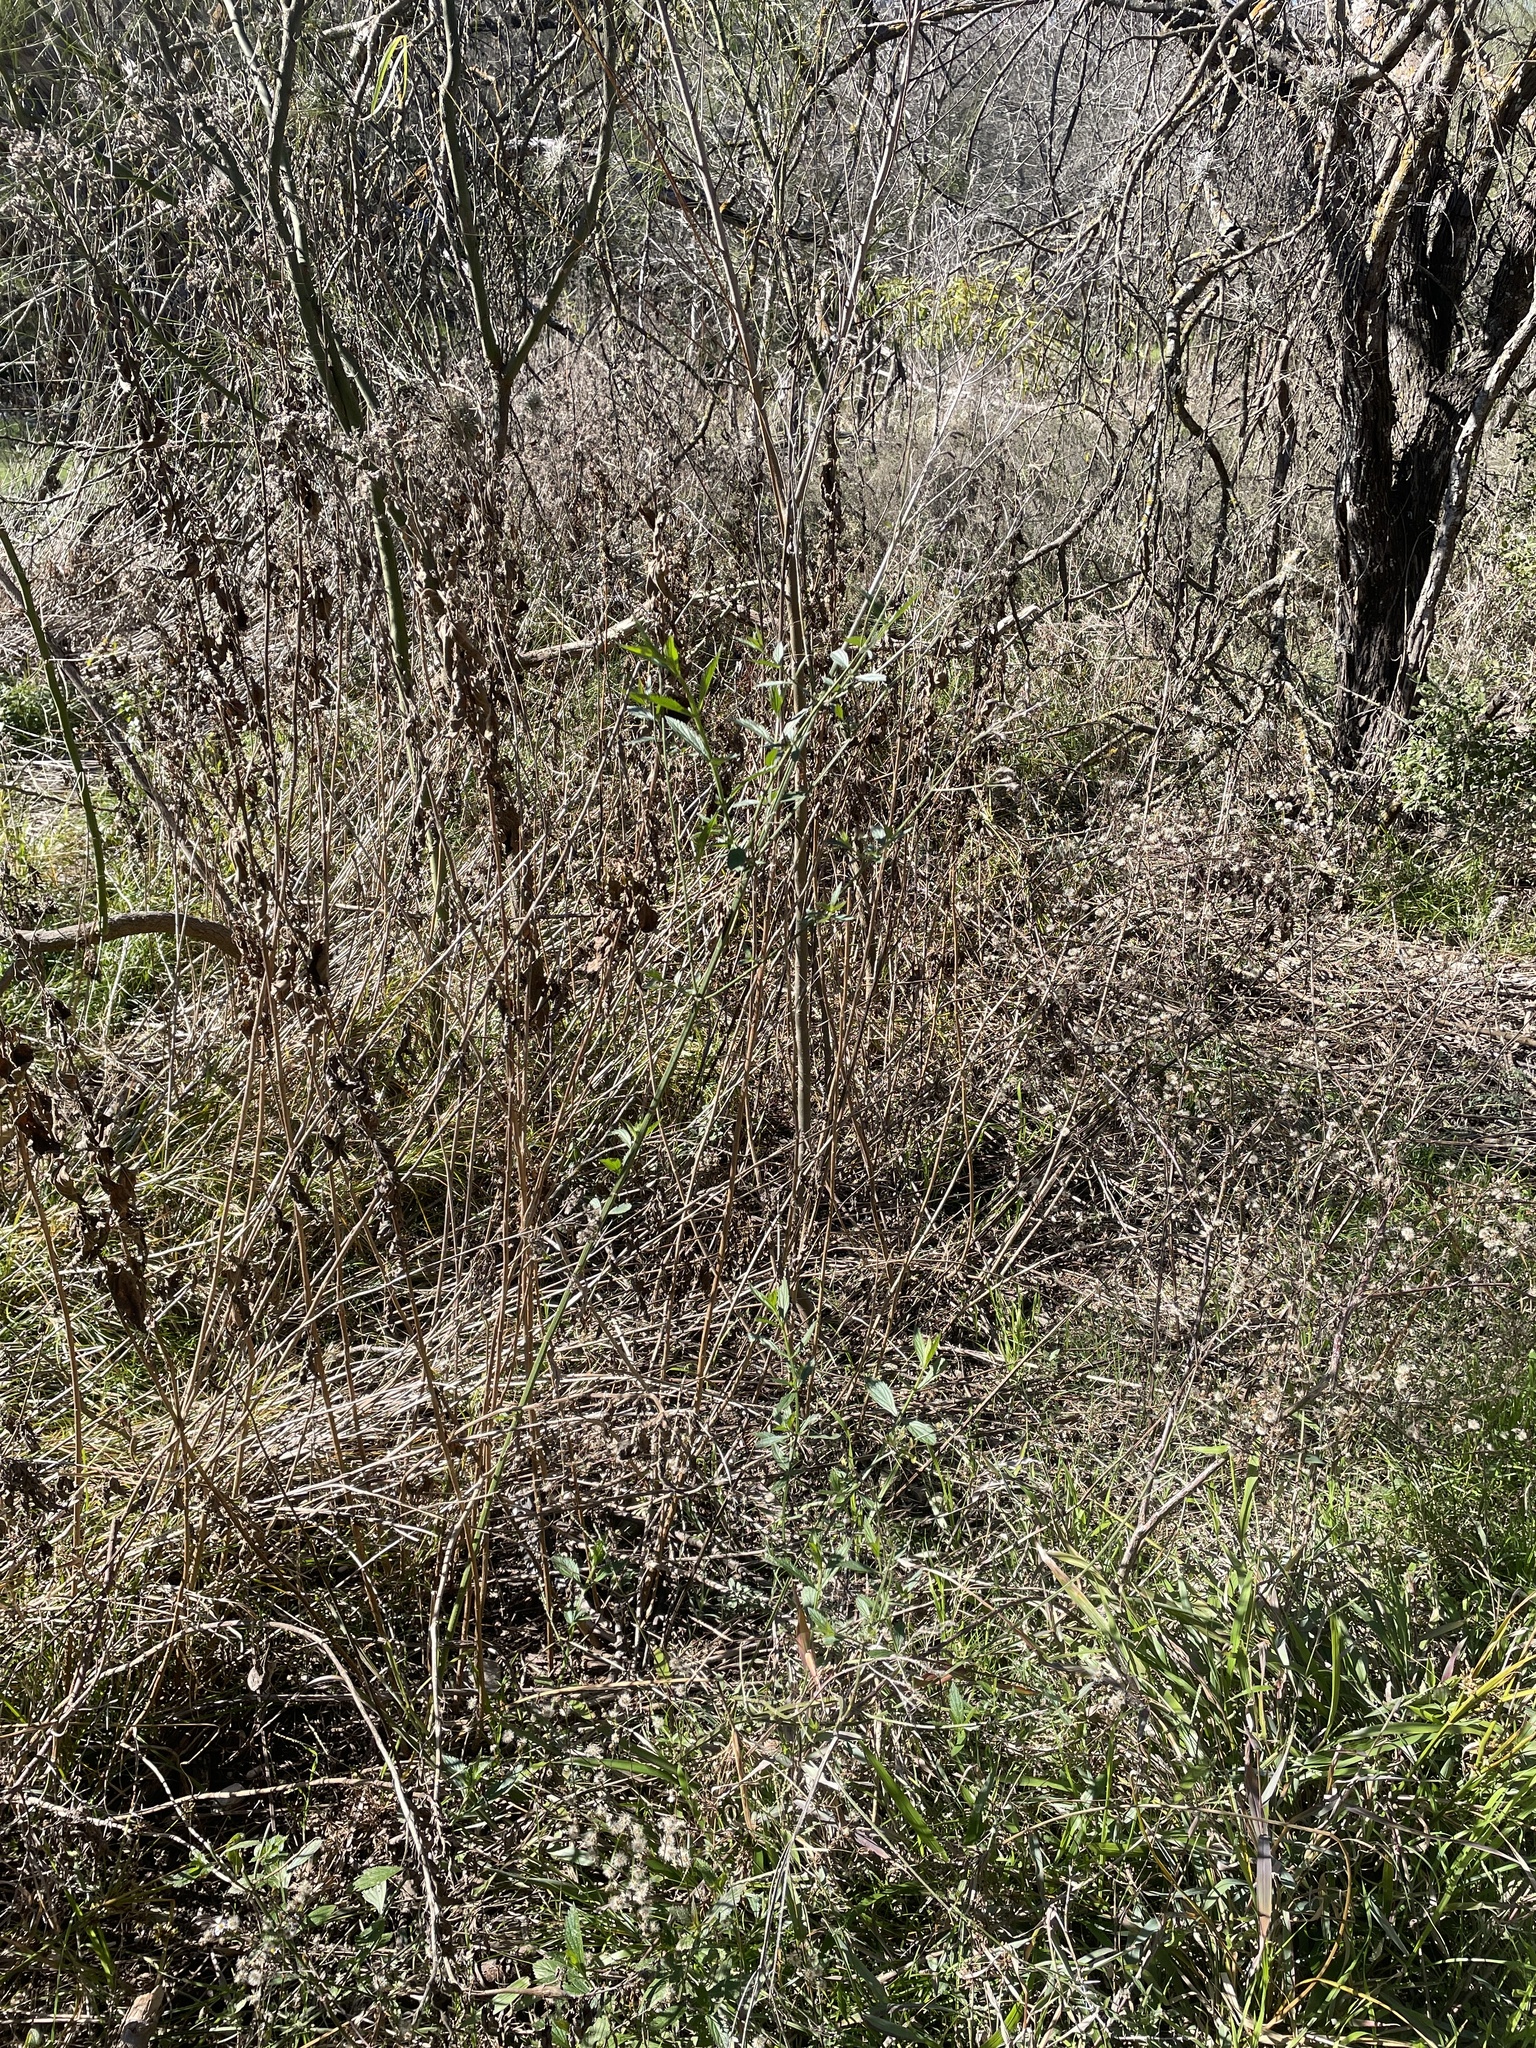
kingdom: Plantae
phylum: Tracheophyta
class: Magnoliopsida
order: Lamiales
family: Verbenaceae
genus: Verbena
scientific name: Verbena brasiliensis
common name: Brazilian vervain
